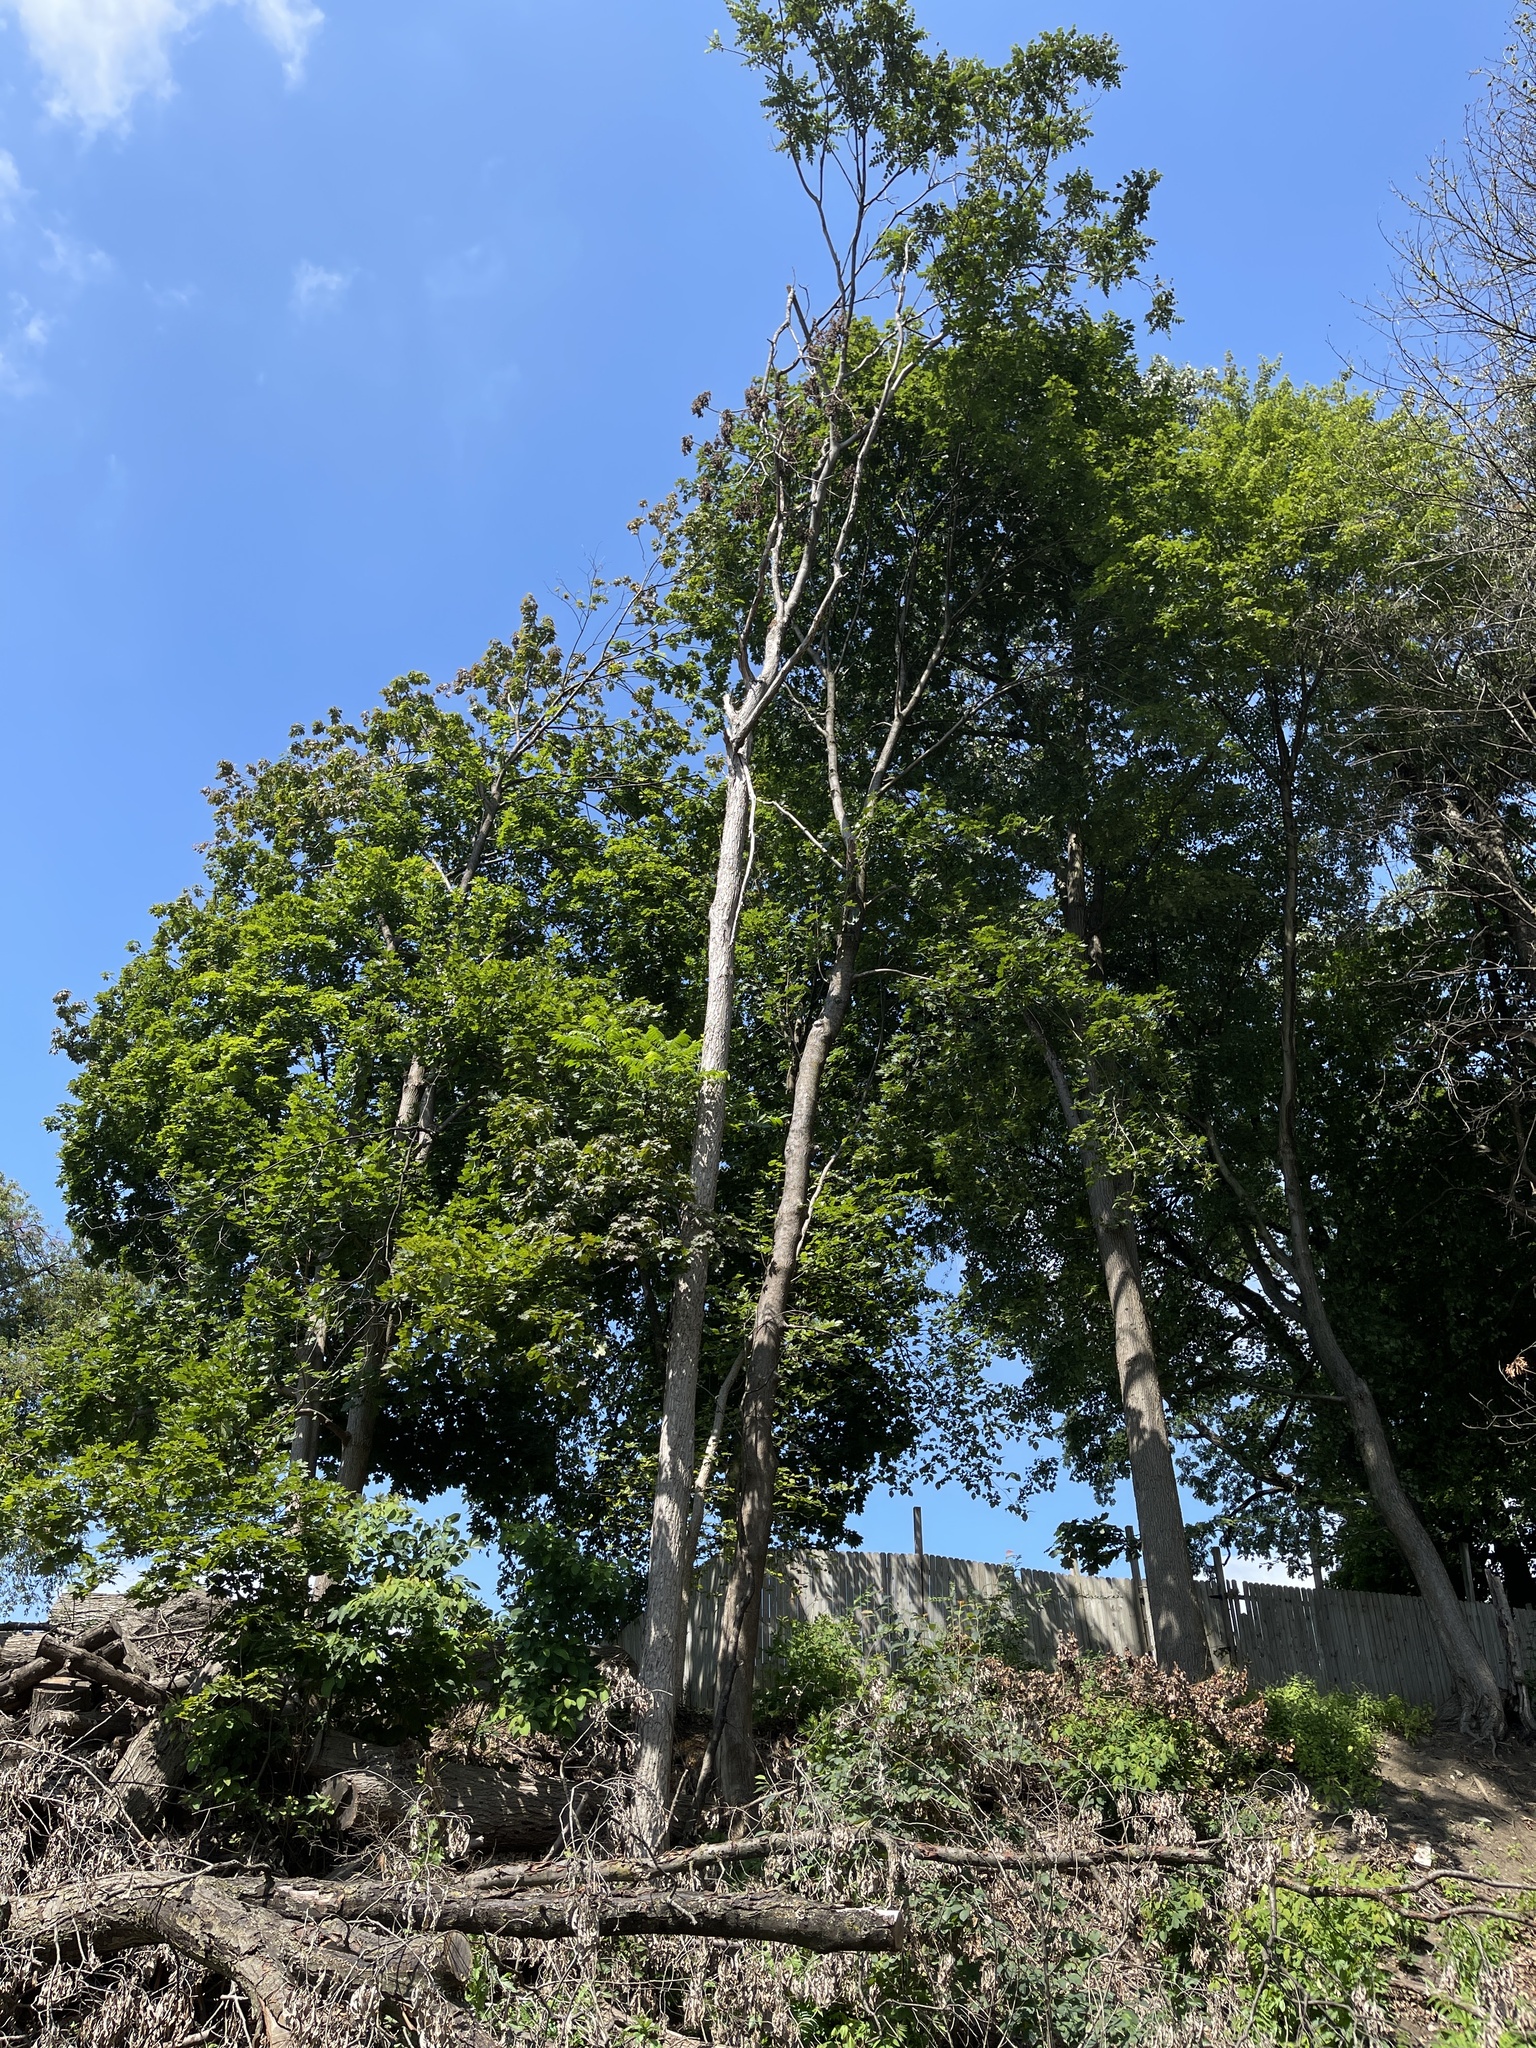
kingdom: Plantae
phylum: Tracheophyta
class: Magnoliopsida
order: Fagales
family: Juglandaceae
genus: Juglans
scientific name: Juglans cinerea
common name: Butternut
